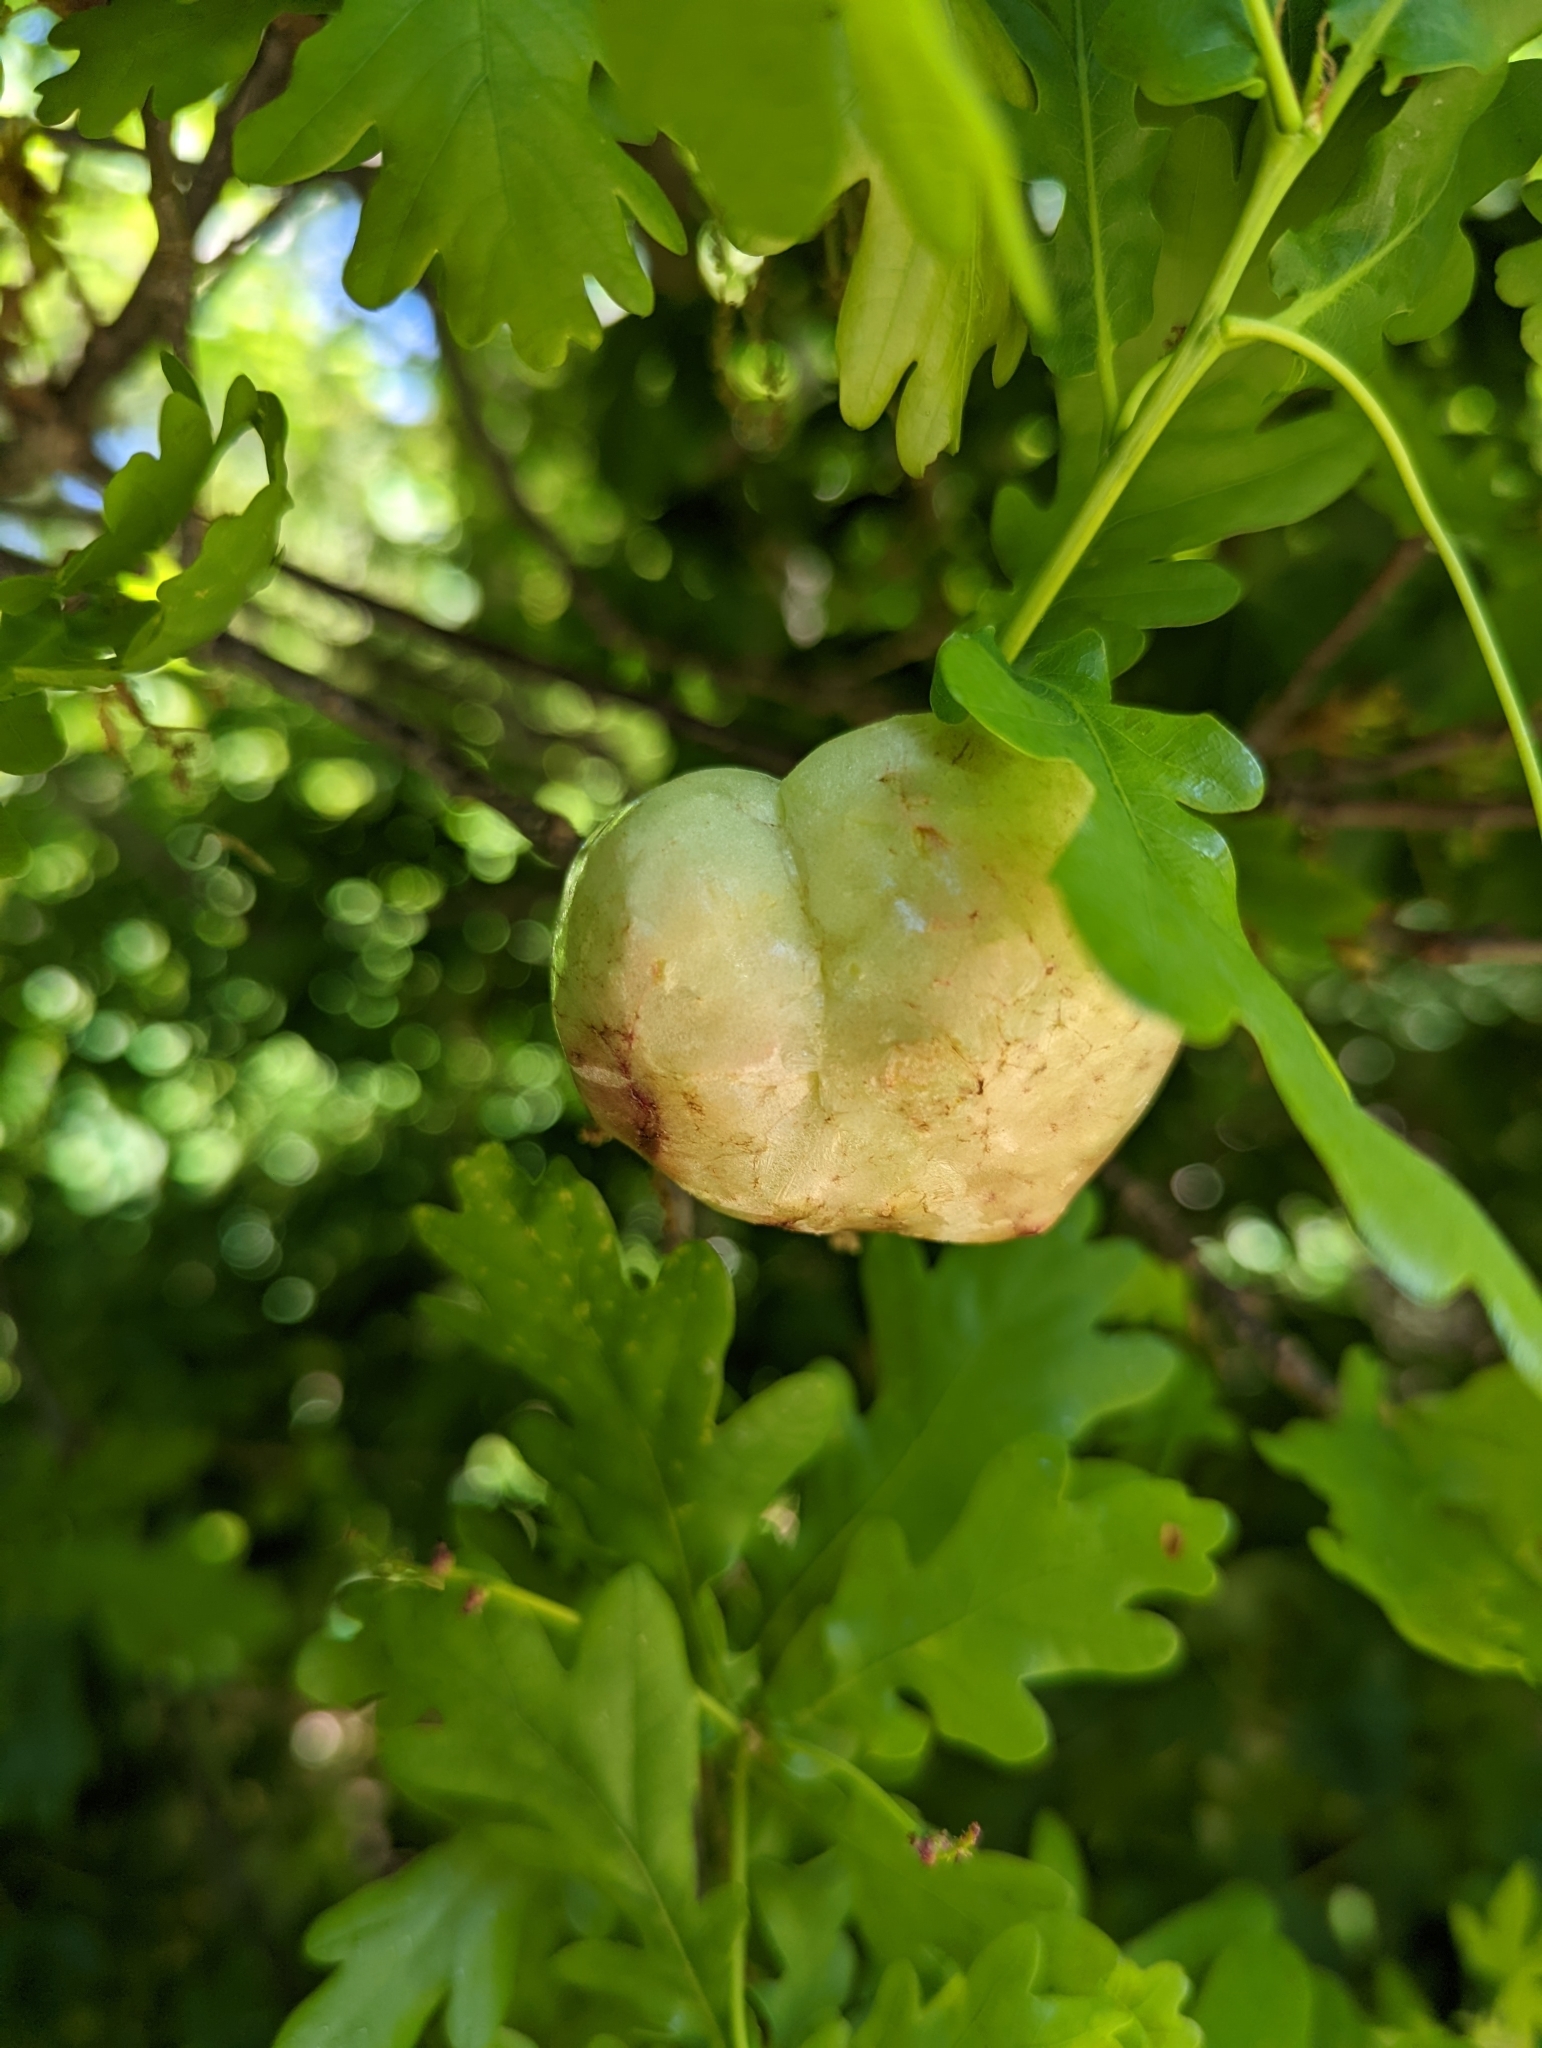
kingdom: Animalia
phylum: Arthropoda
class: Insecta
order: Hymenoptera
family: Cynipidae
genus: Biorhiza
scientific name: Biorhiza pallida
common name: Oak apple
